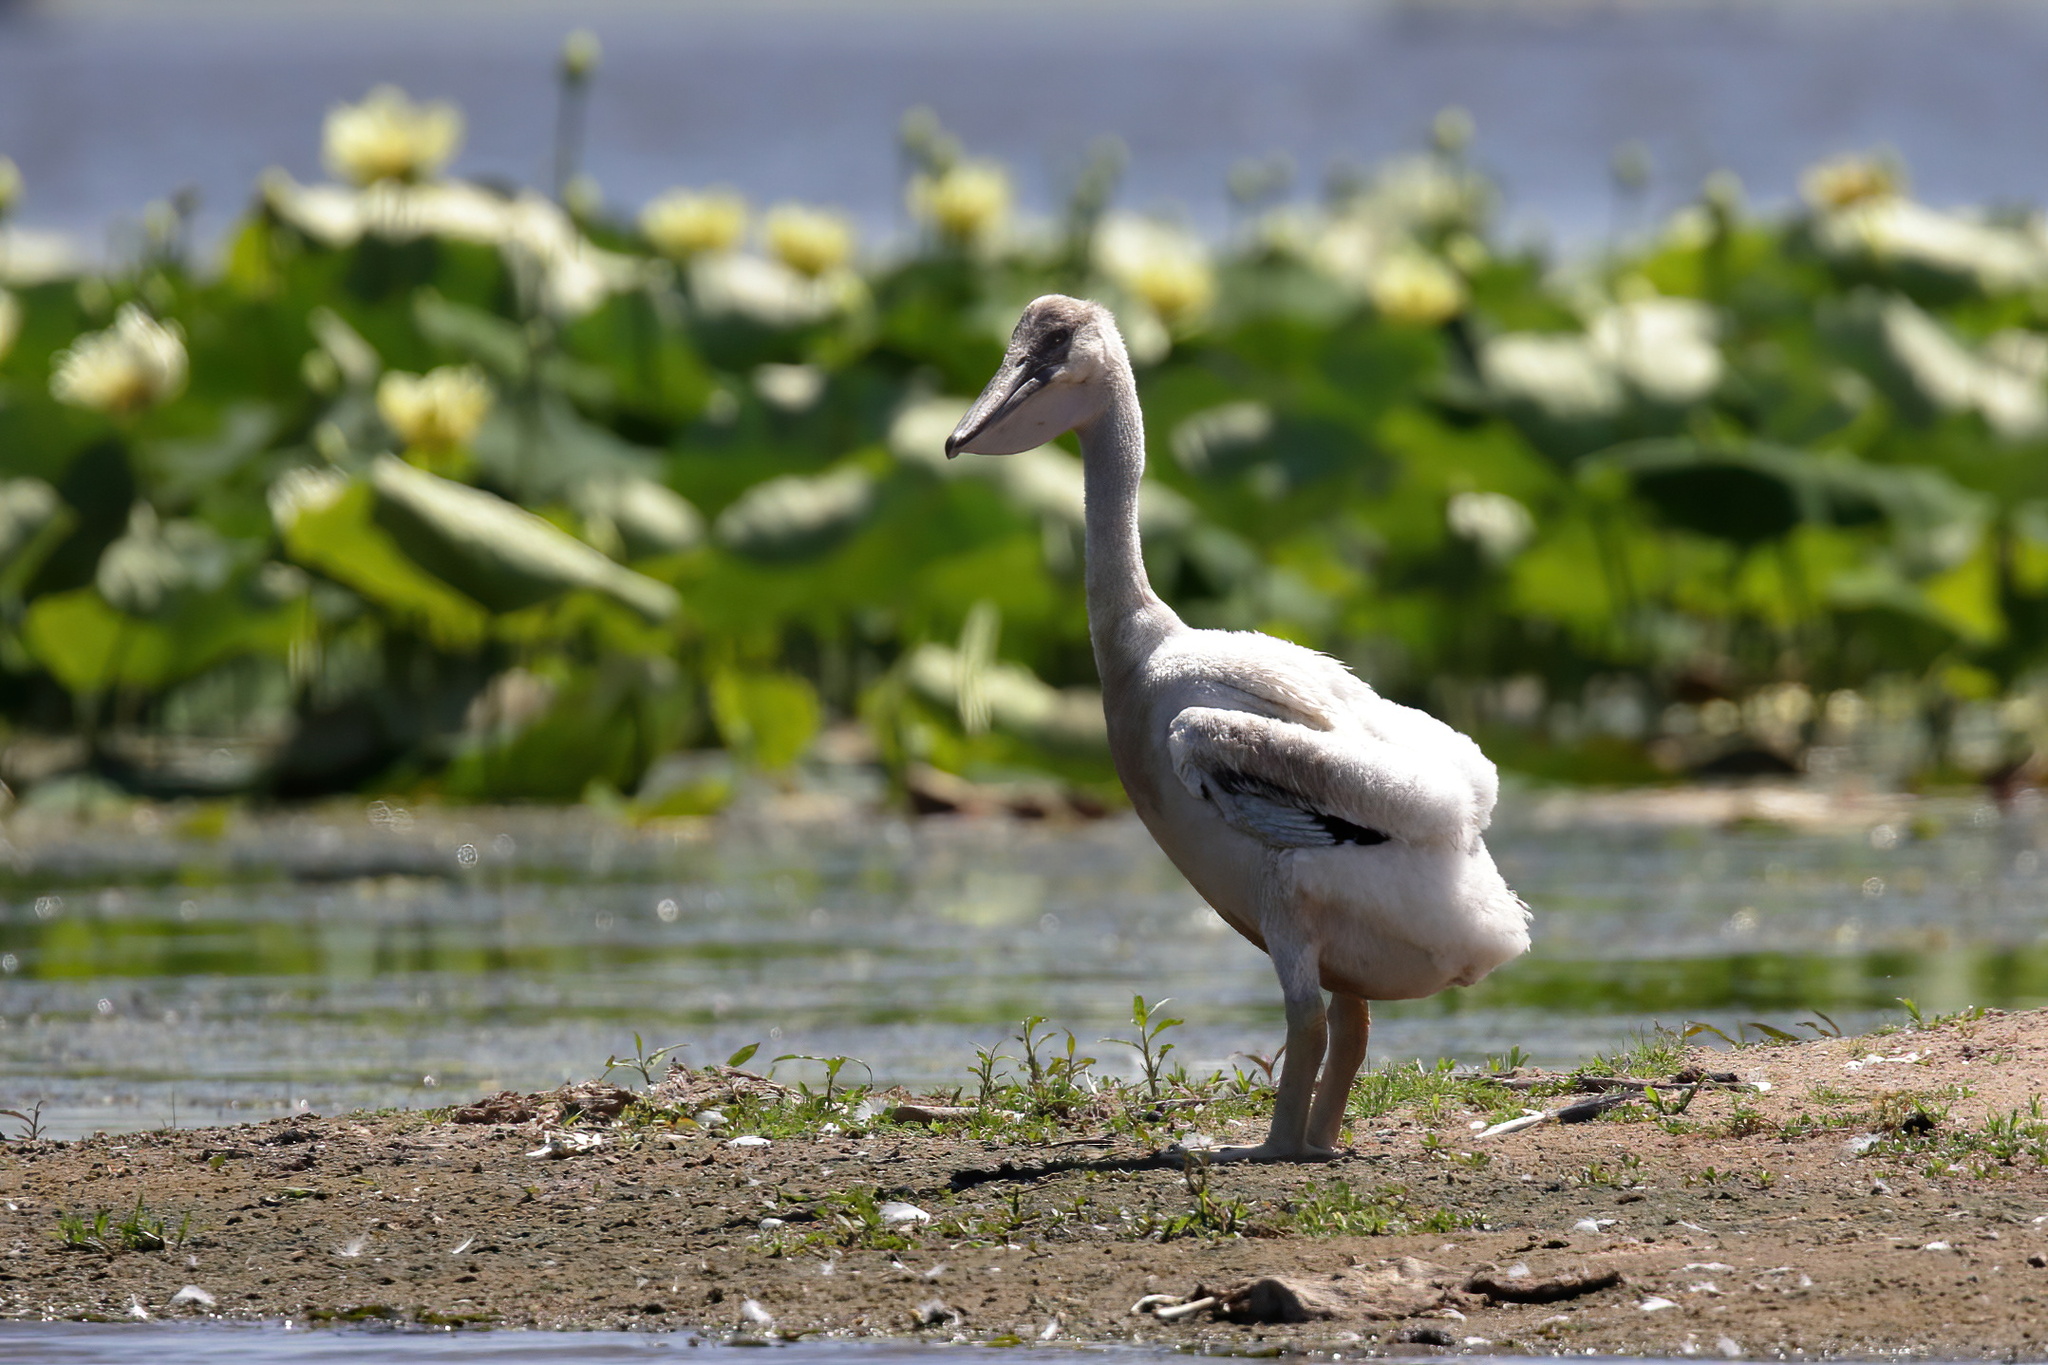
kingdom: Animalia
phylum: Chordata
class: Aves
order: Pelecaniformes
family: Pelecanidae
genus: Pelecanus
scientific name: Pelecanus erythrorhynchos
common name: American white pelican
